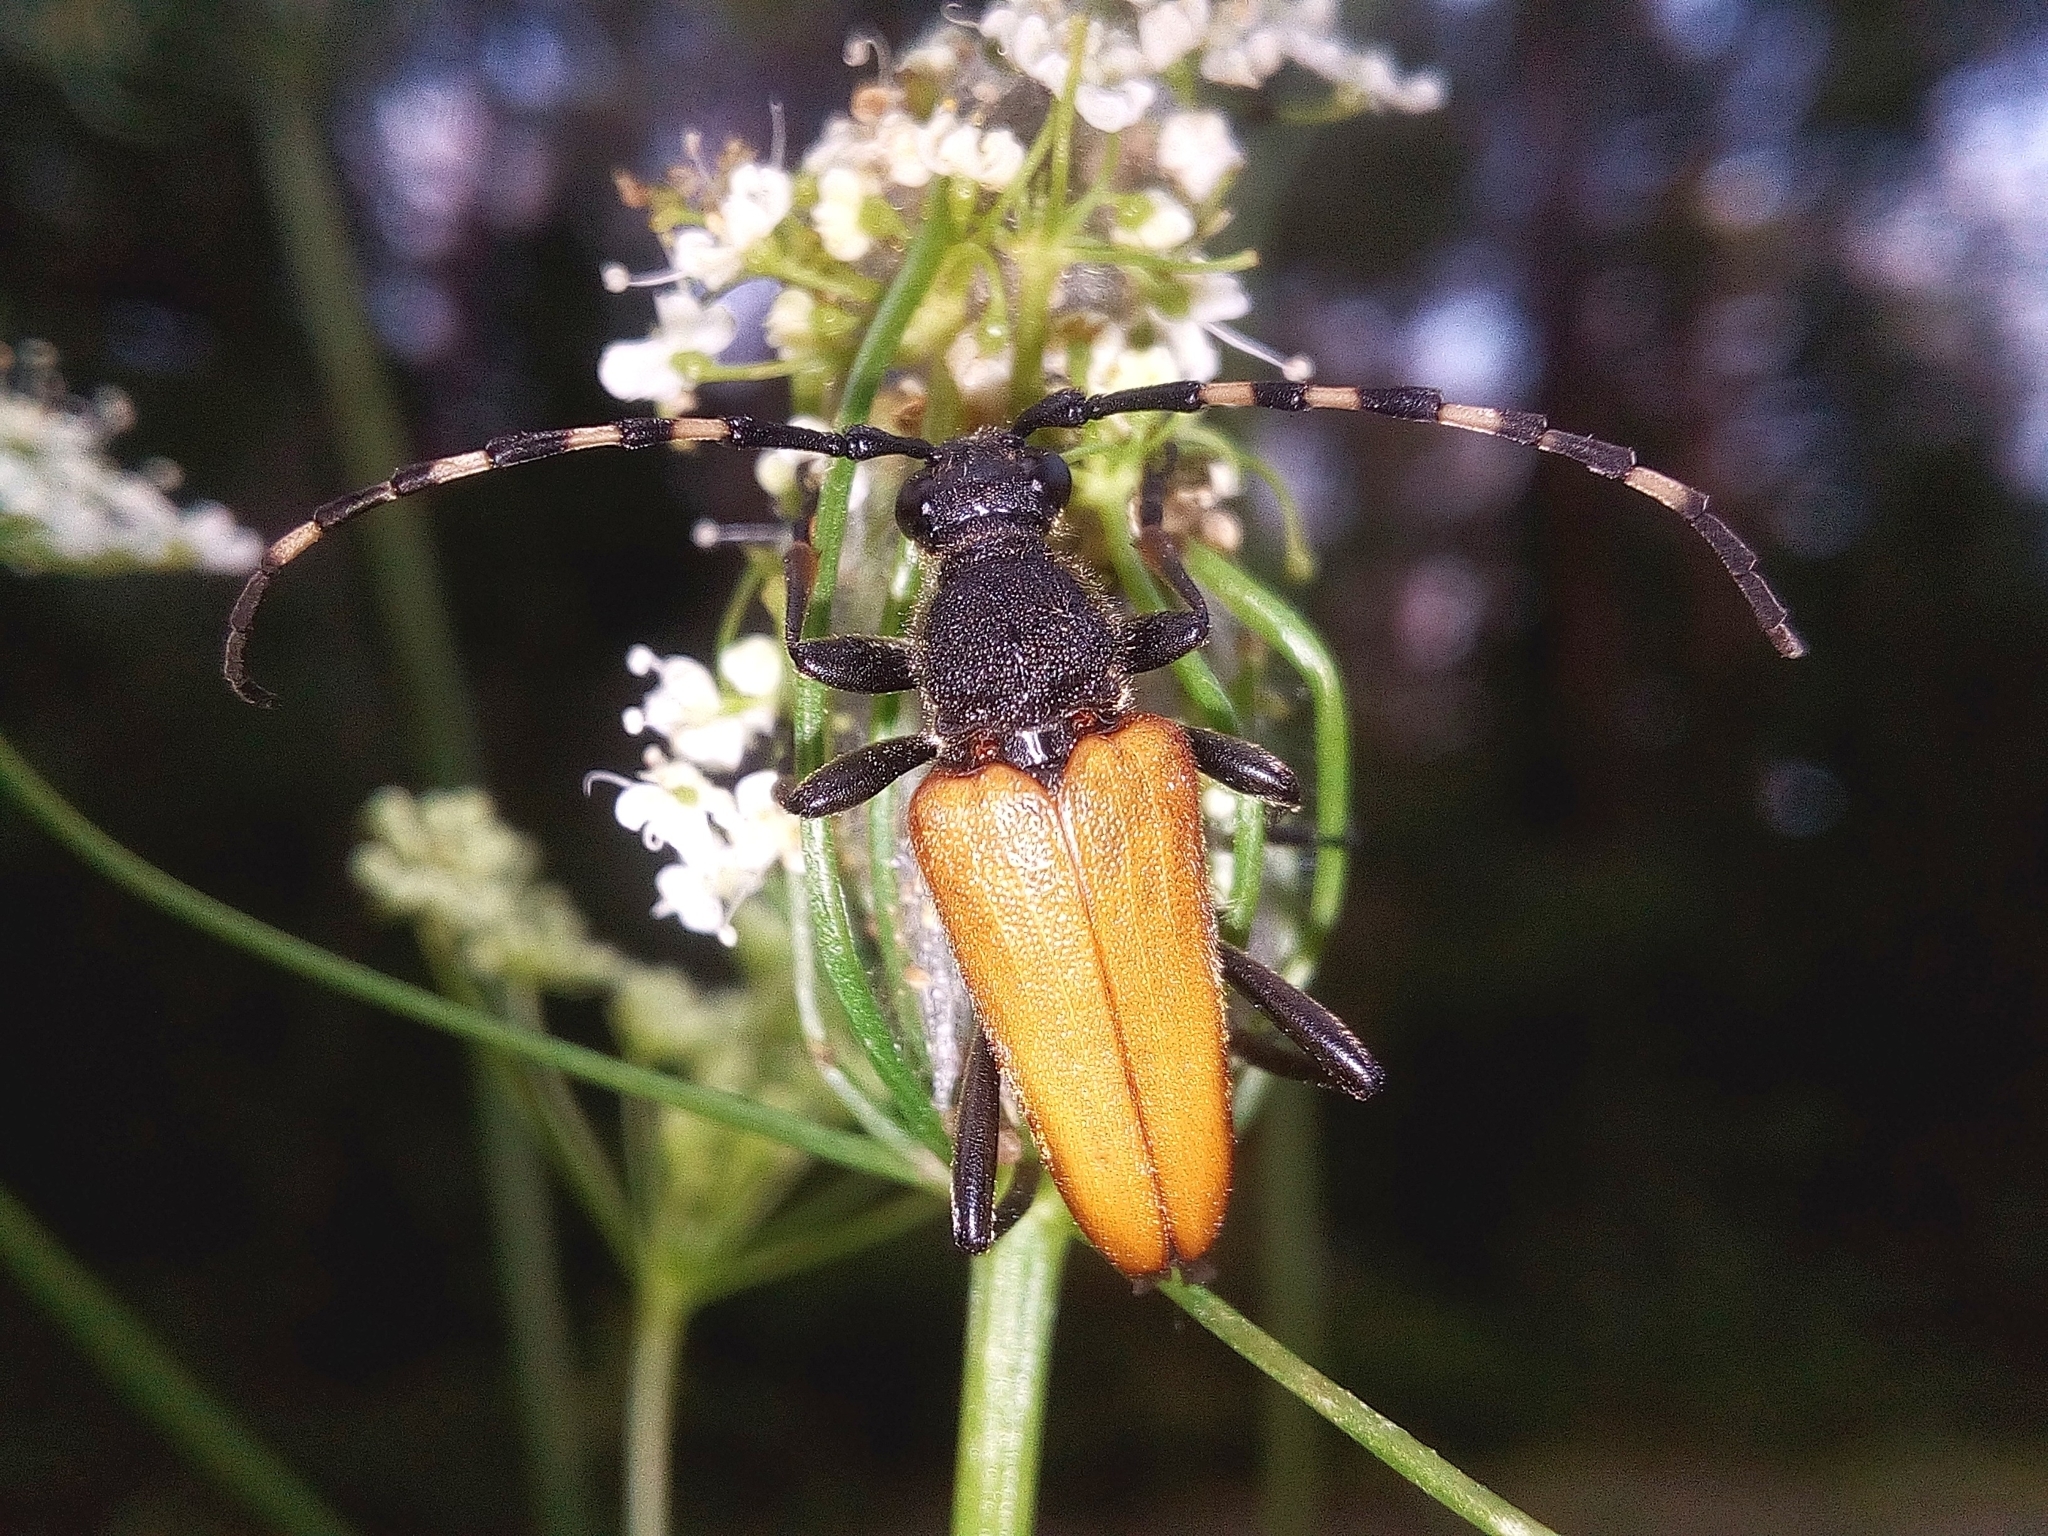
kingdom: Animalia
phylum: Arthropoda
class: Insecta
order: Coleoptera
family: Cerambycidae
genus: Stictoleptura
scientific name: Stictoleptura variicornis
